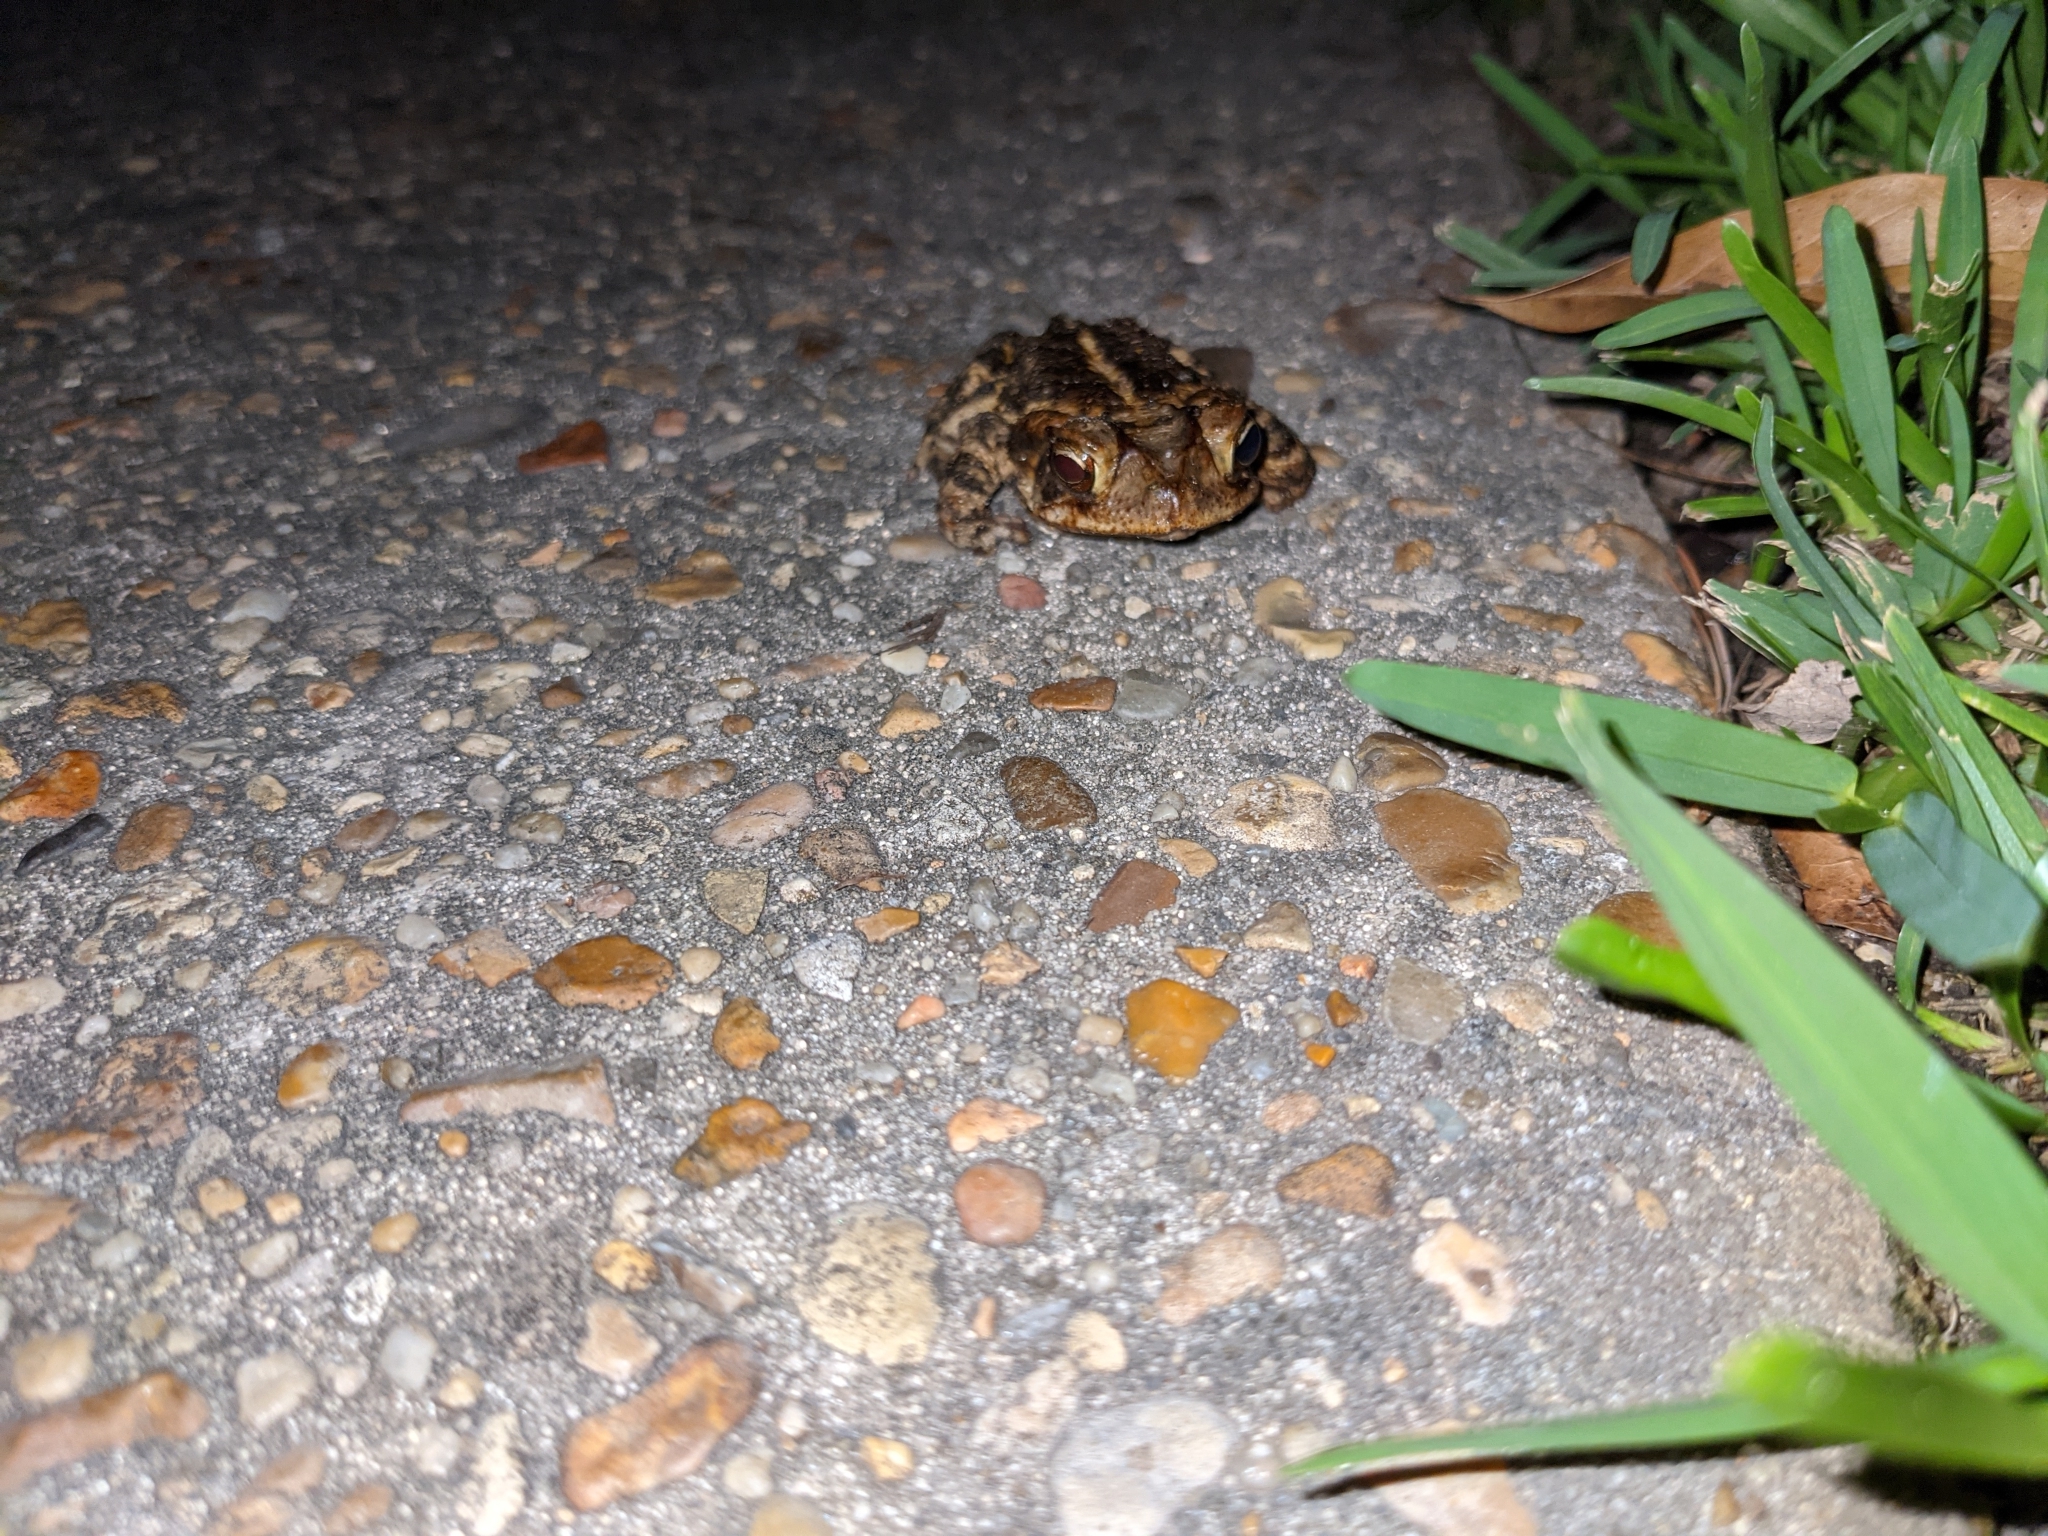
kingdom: Animalia
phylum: Chordata
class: Amphibia
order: Anura
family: Bufonidae
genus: Incilius
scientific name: Incilius nebulifer
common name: Gulf coast toad
